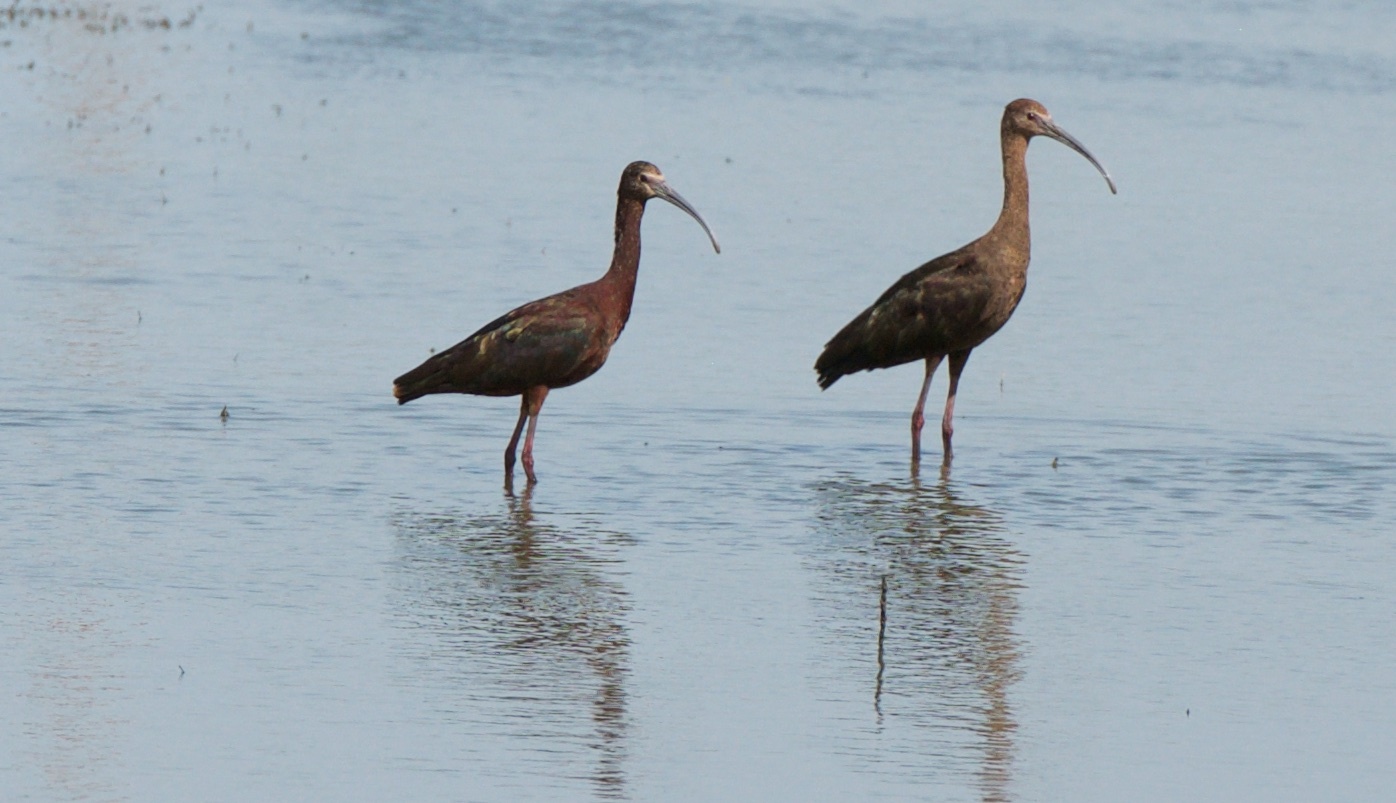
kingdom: Animalia
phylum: Chordata
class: Aves
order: Pelecaniformes
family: Threskiornithidae
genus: Plegadis
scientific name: Plegadis chihi
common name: White-faced ibis
